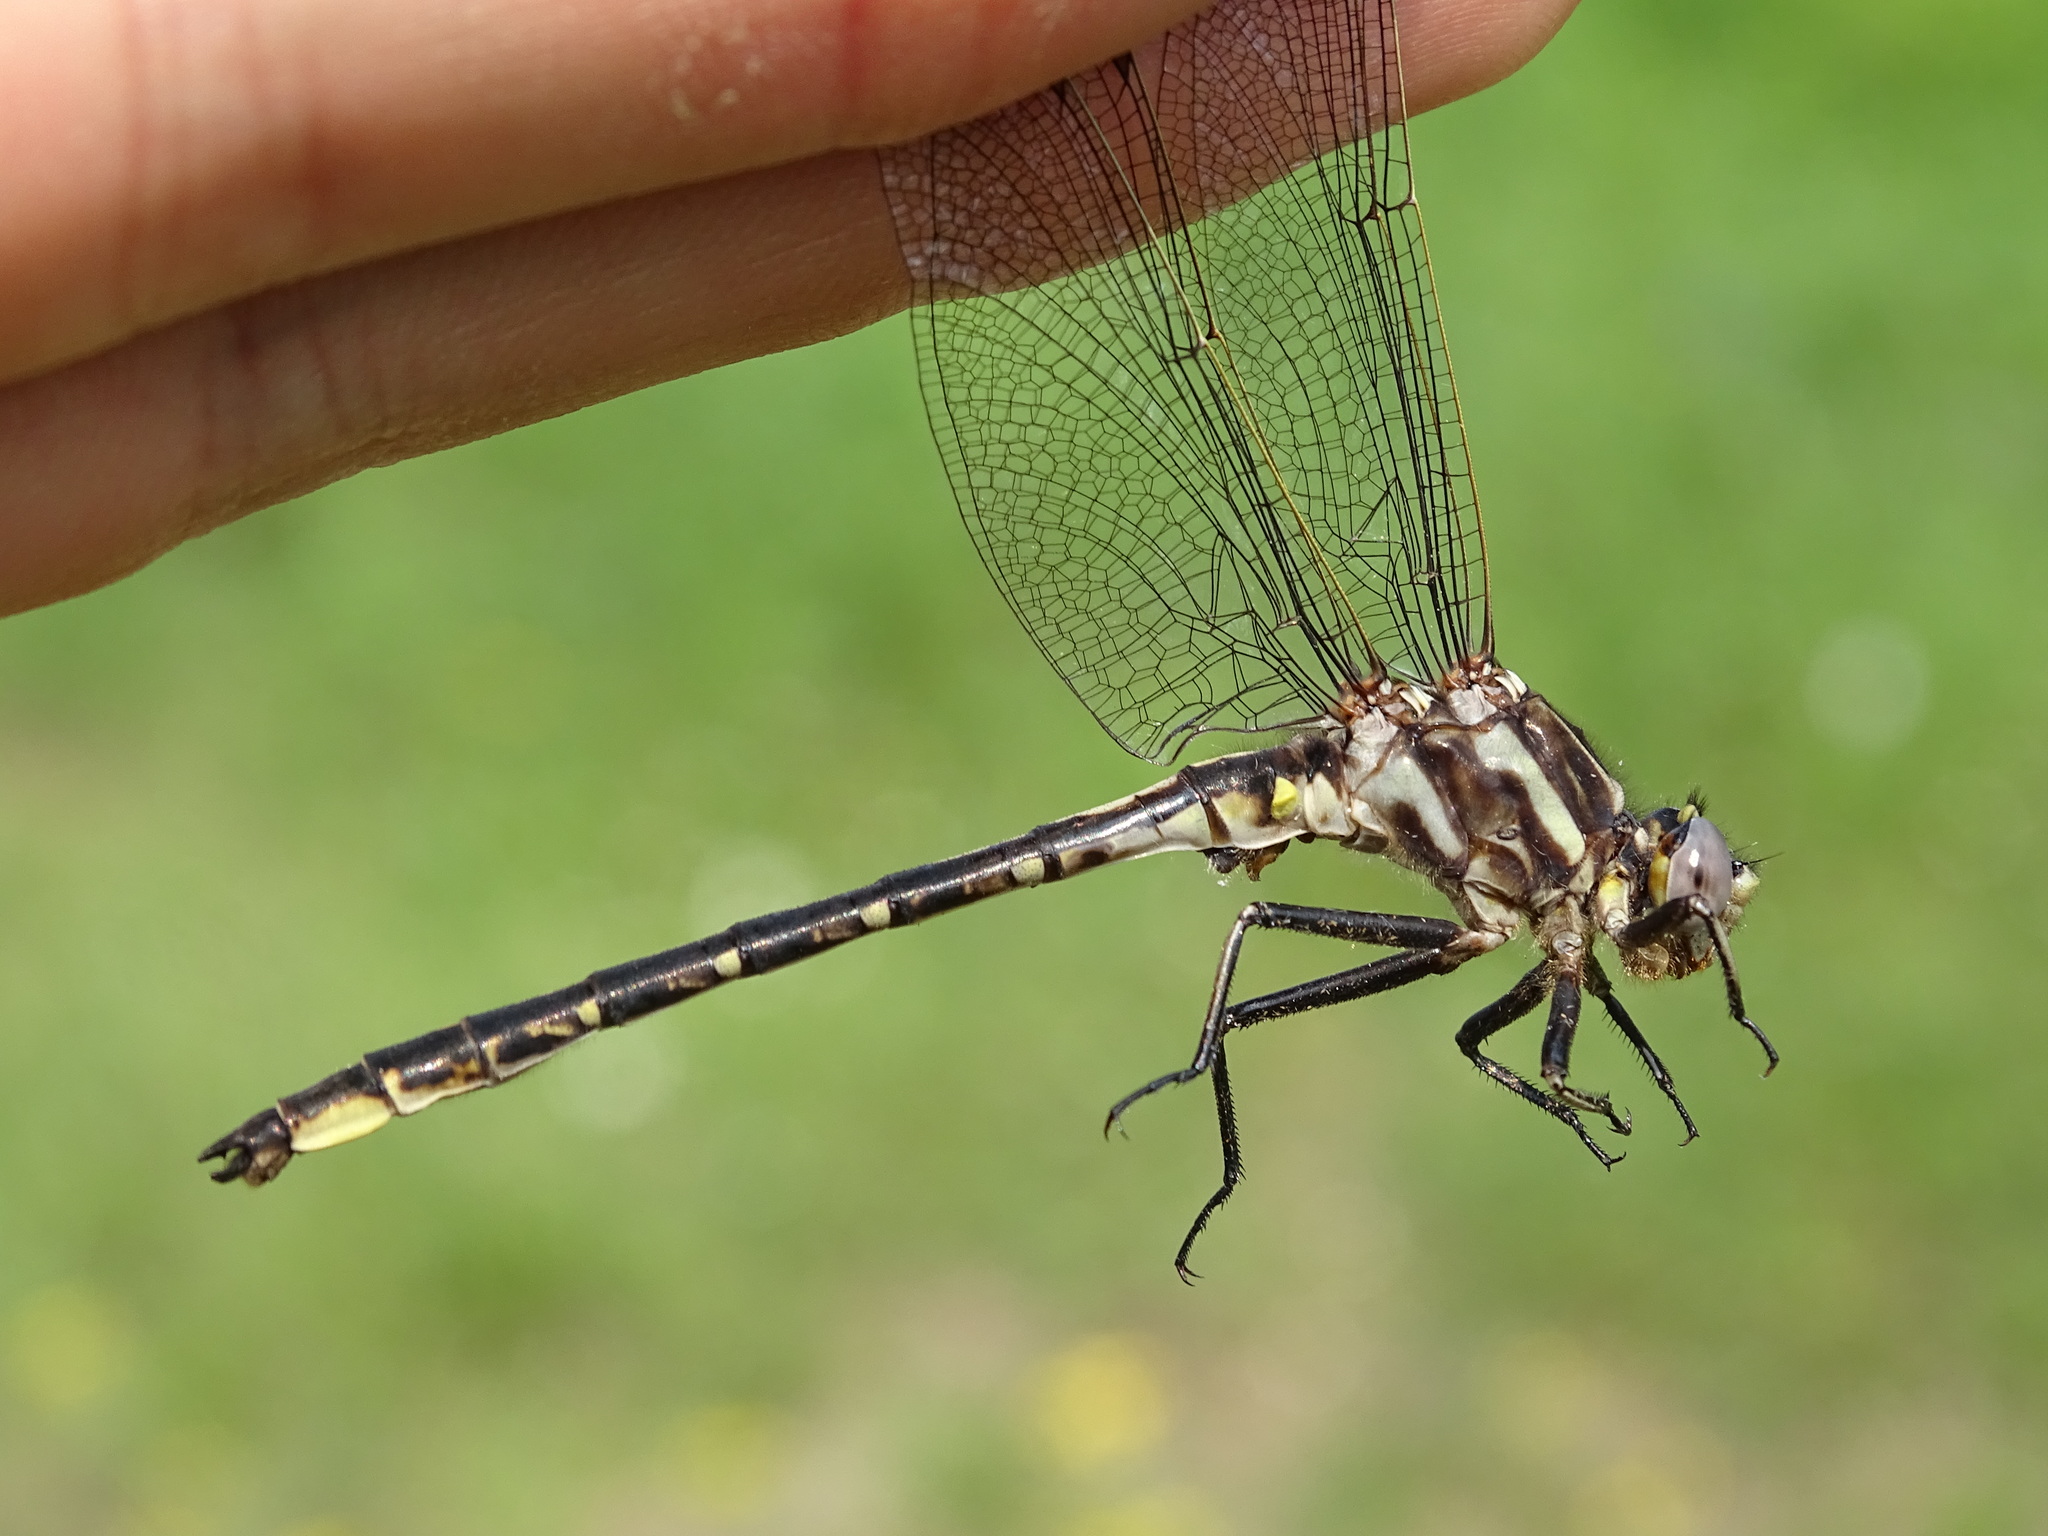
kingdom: Animalia
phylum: Arthropoda
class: Insecta
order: Odonata
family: Gomphidae
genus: Phanogomphus
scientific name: Phanogomphus spicatus
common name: Dusky clubtail
